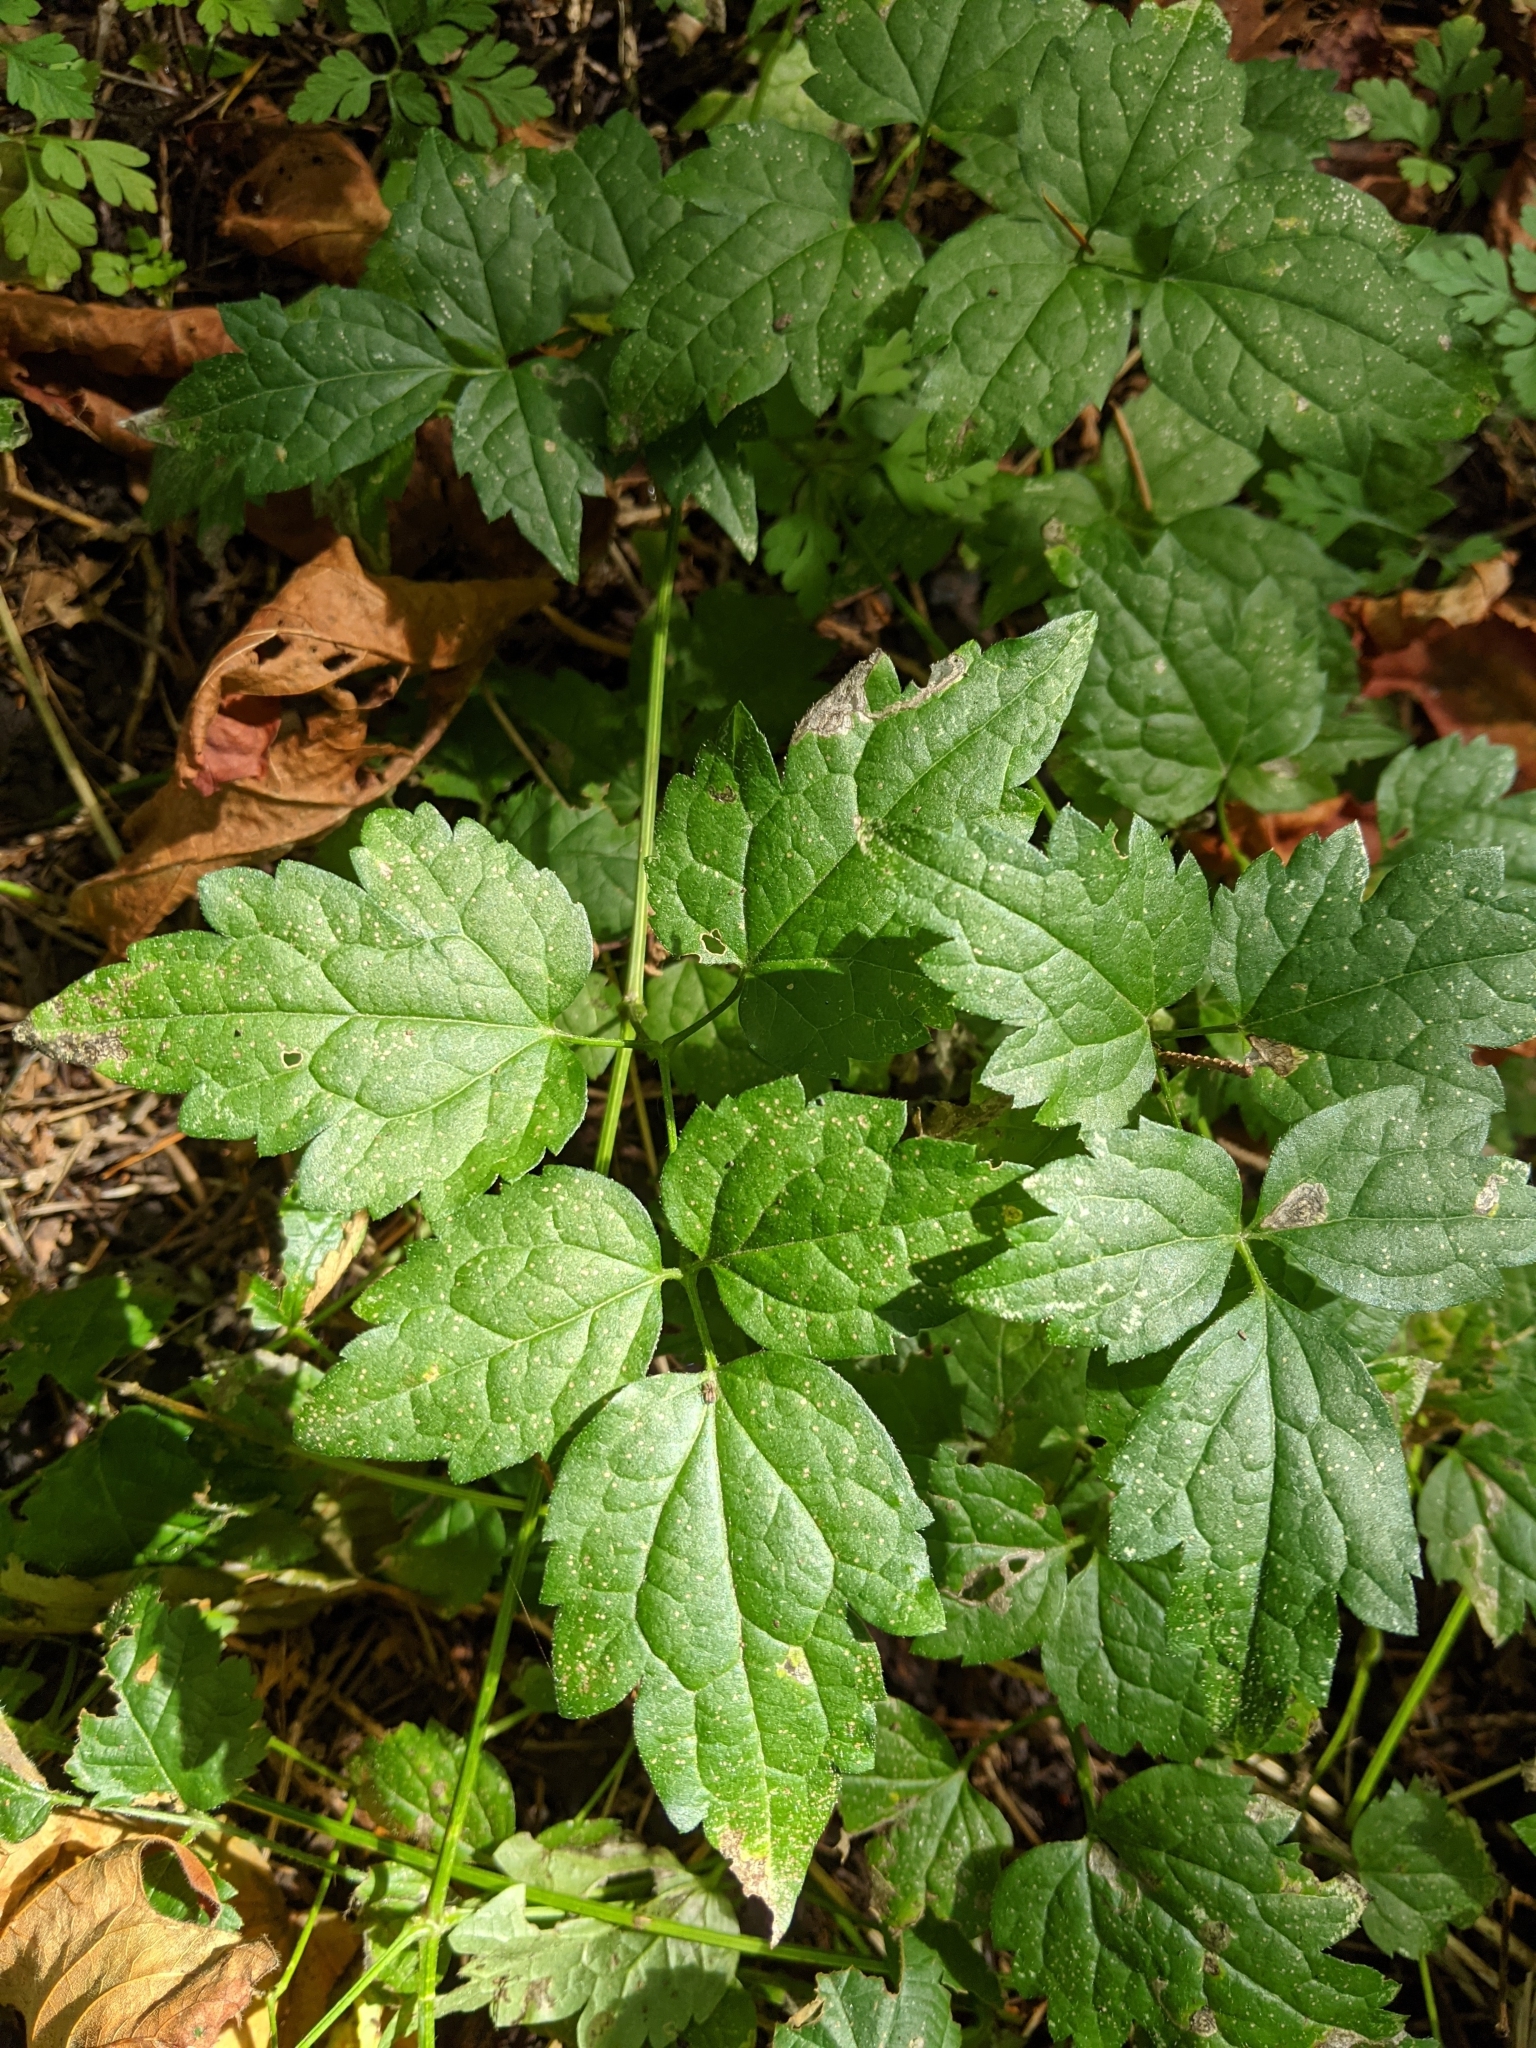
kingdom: Plantae
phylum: Tracheophyta
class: Magnoliopsida
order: Ranunculales
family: Ranunculaceae
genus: Clematis
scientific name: Clematis vitalba
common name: Evergreen clematis
